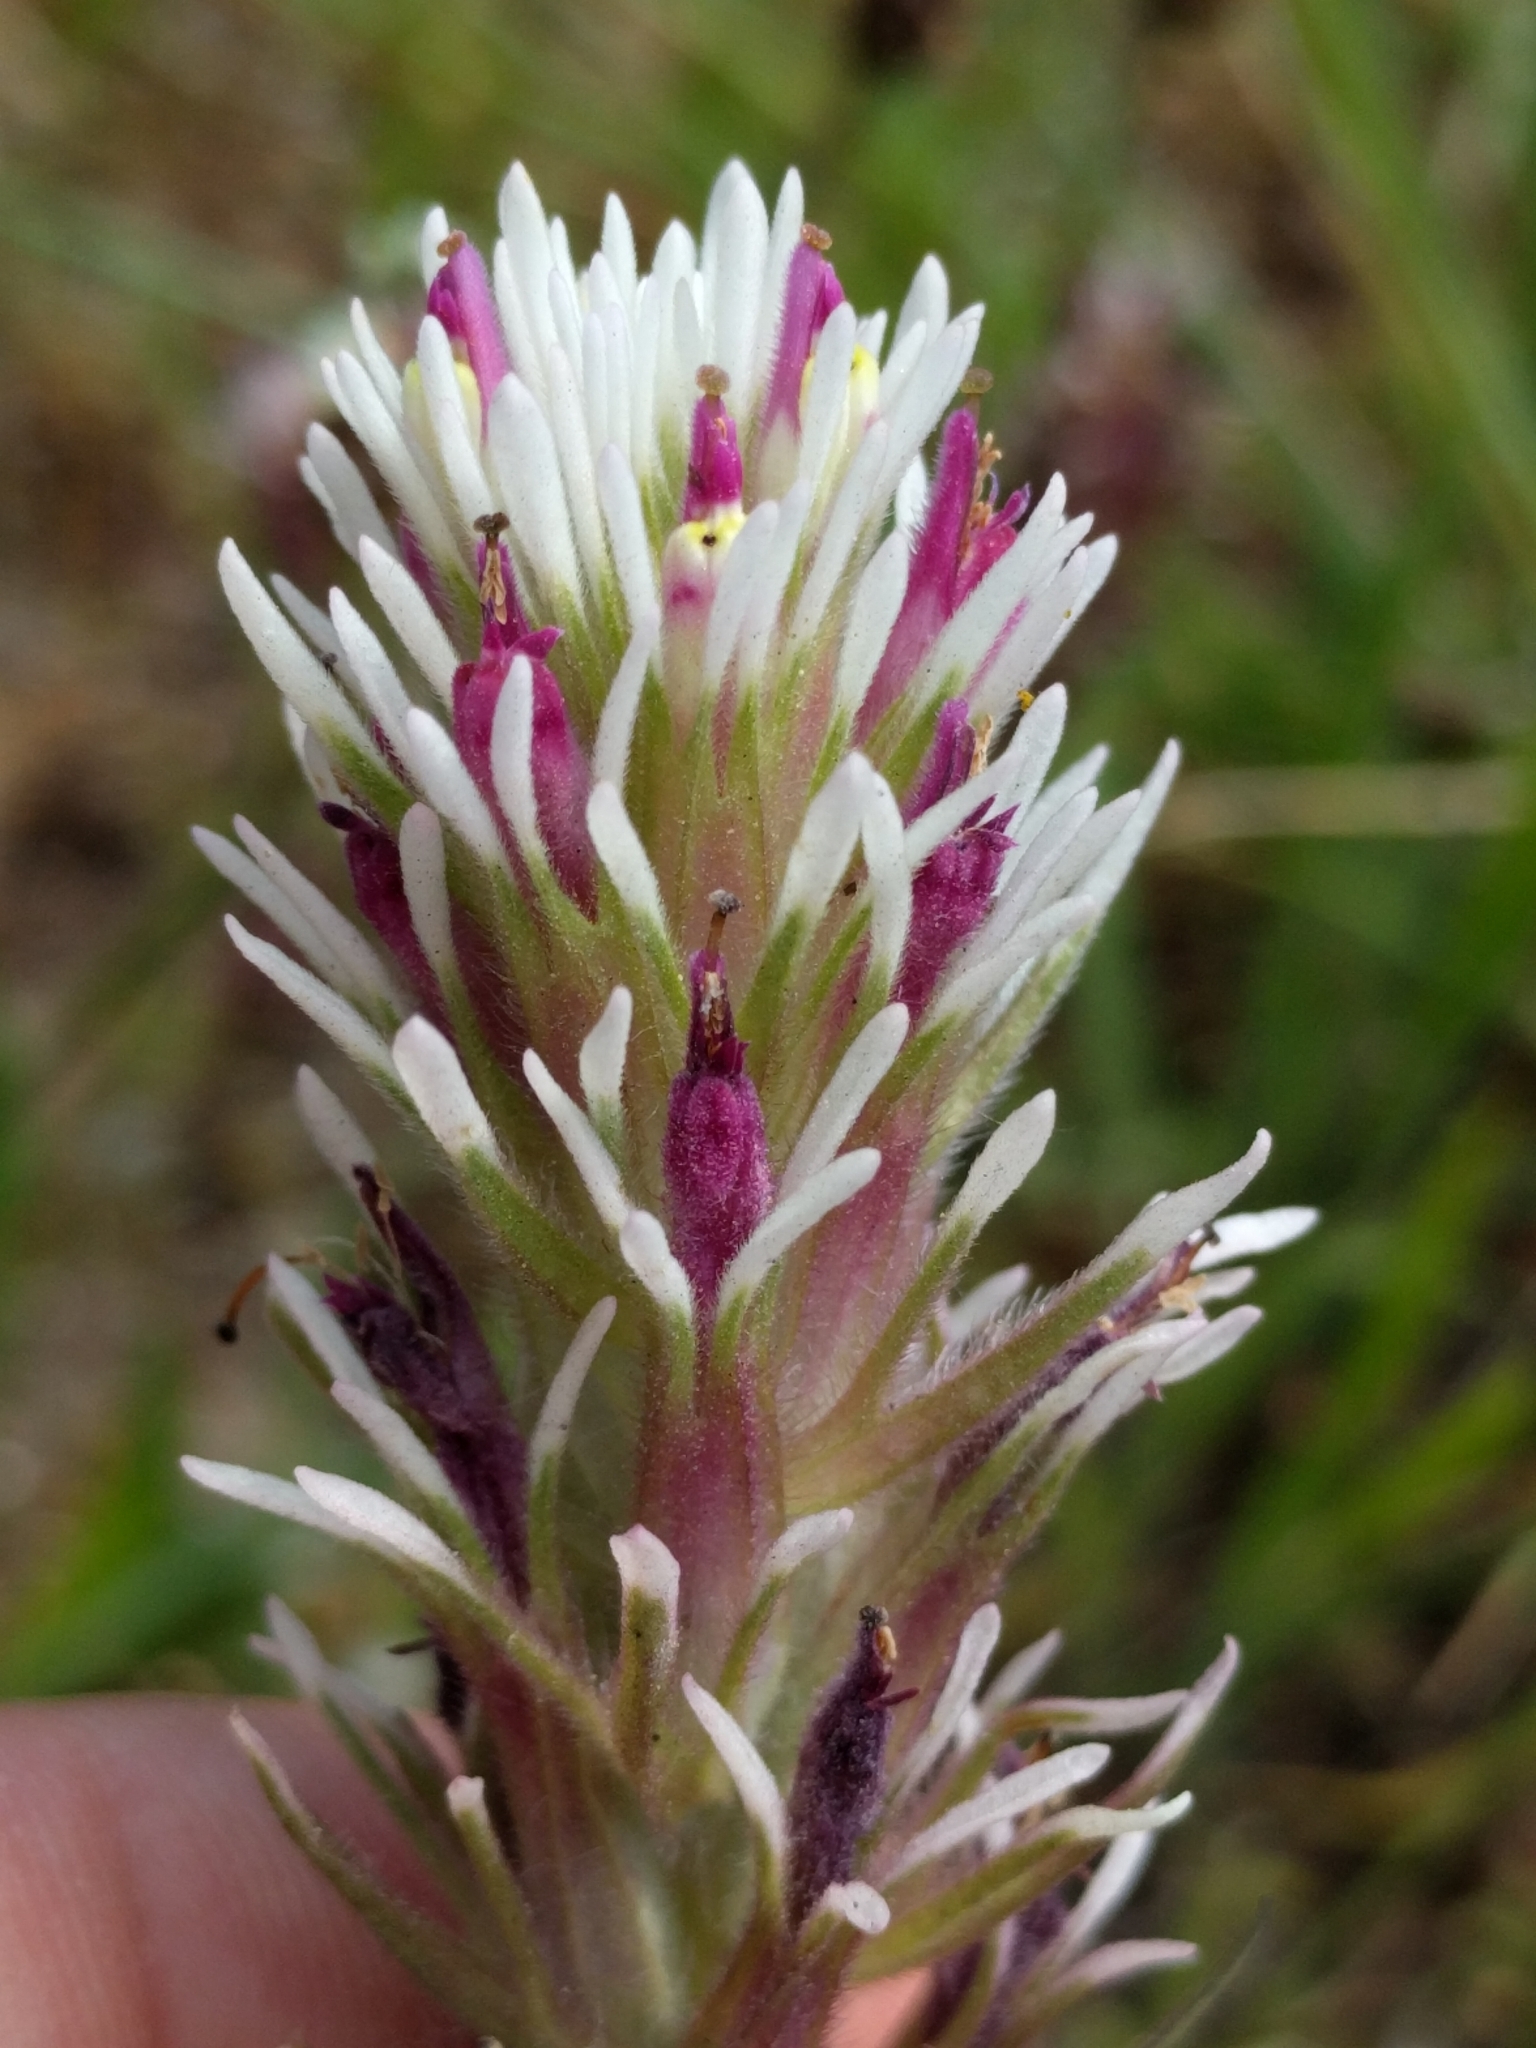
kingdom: Plantae
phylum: Tracheophyta
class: Magnoliopsida
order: Lamiales
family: Orobanchaceae
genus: Castilleja
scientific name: Castilleja densiflora
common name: Dense-flower indian paintbrush
